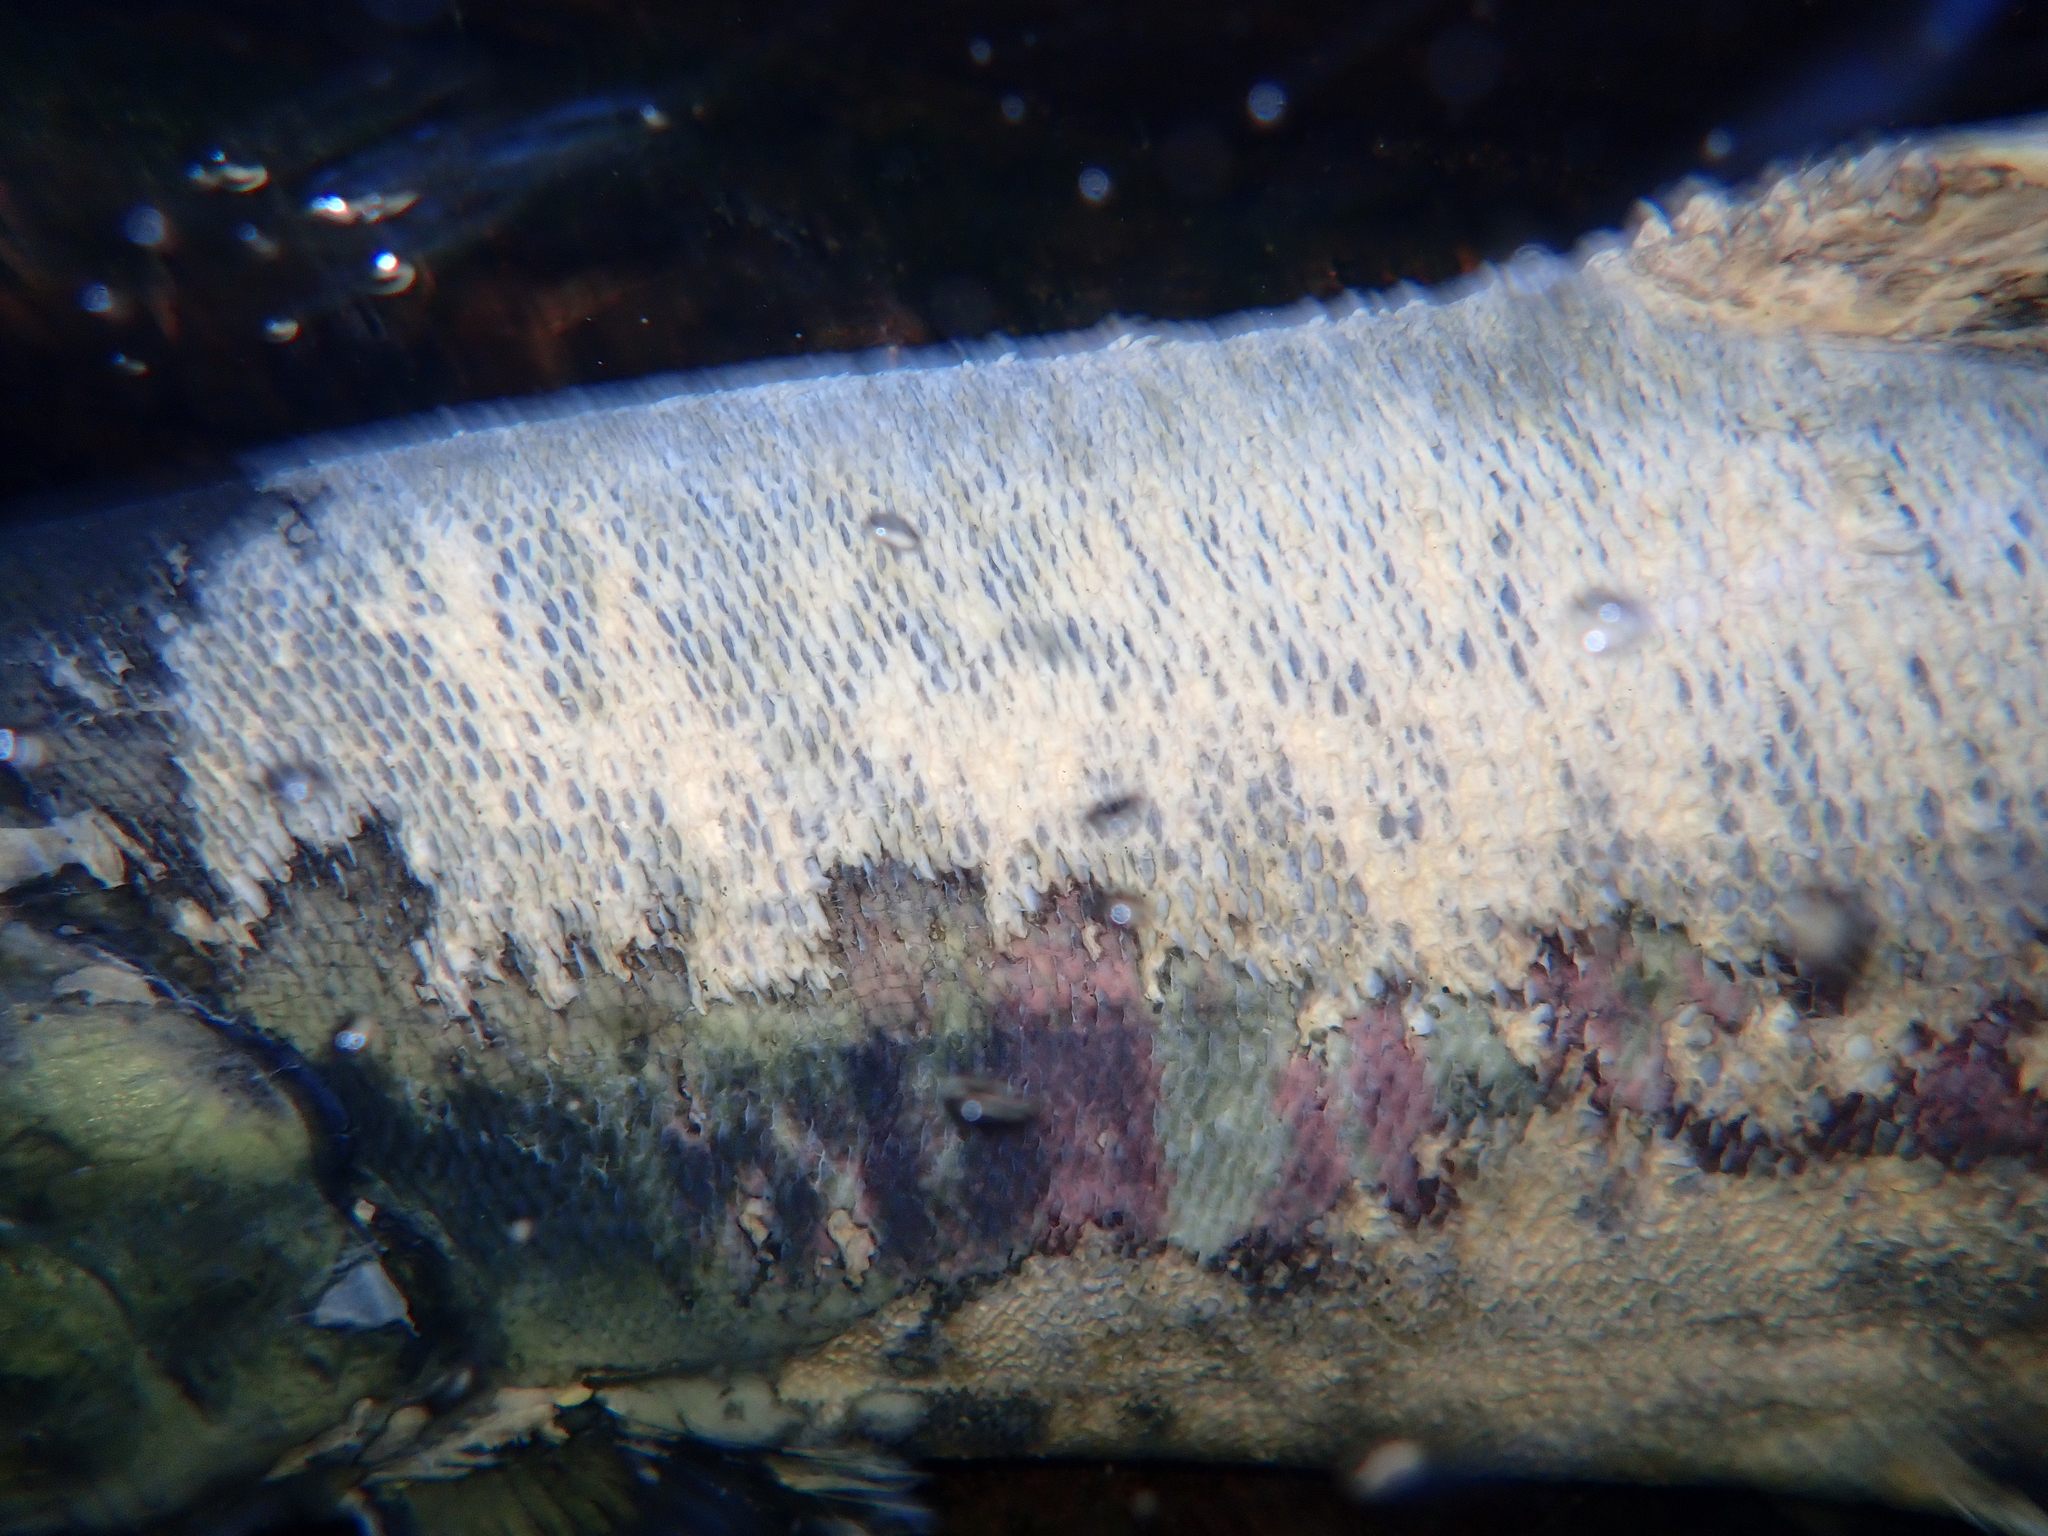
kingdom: Animalia
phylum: Chordata
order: Salmoniformes
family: Salmonidae
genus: Oncorhynchus
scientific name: Oncorhynchus keta
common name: Chum salmon
